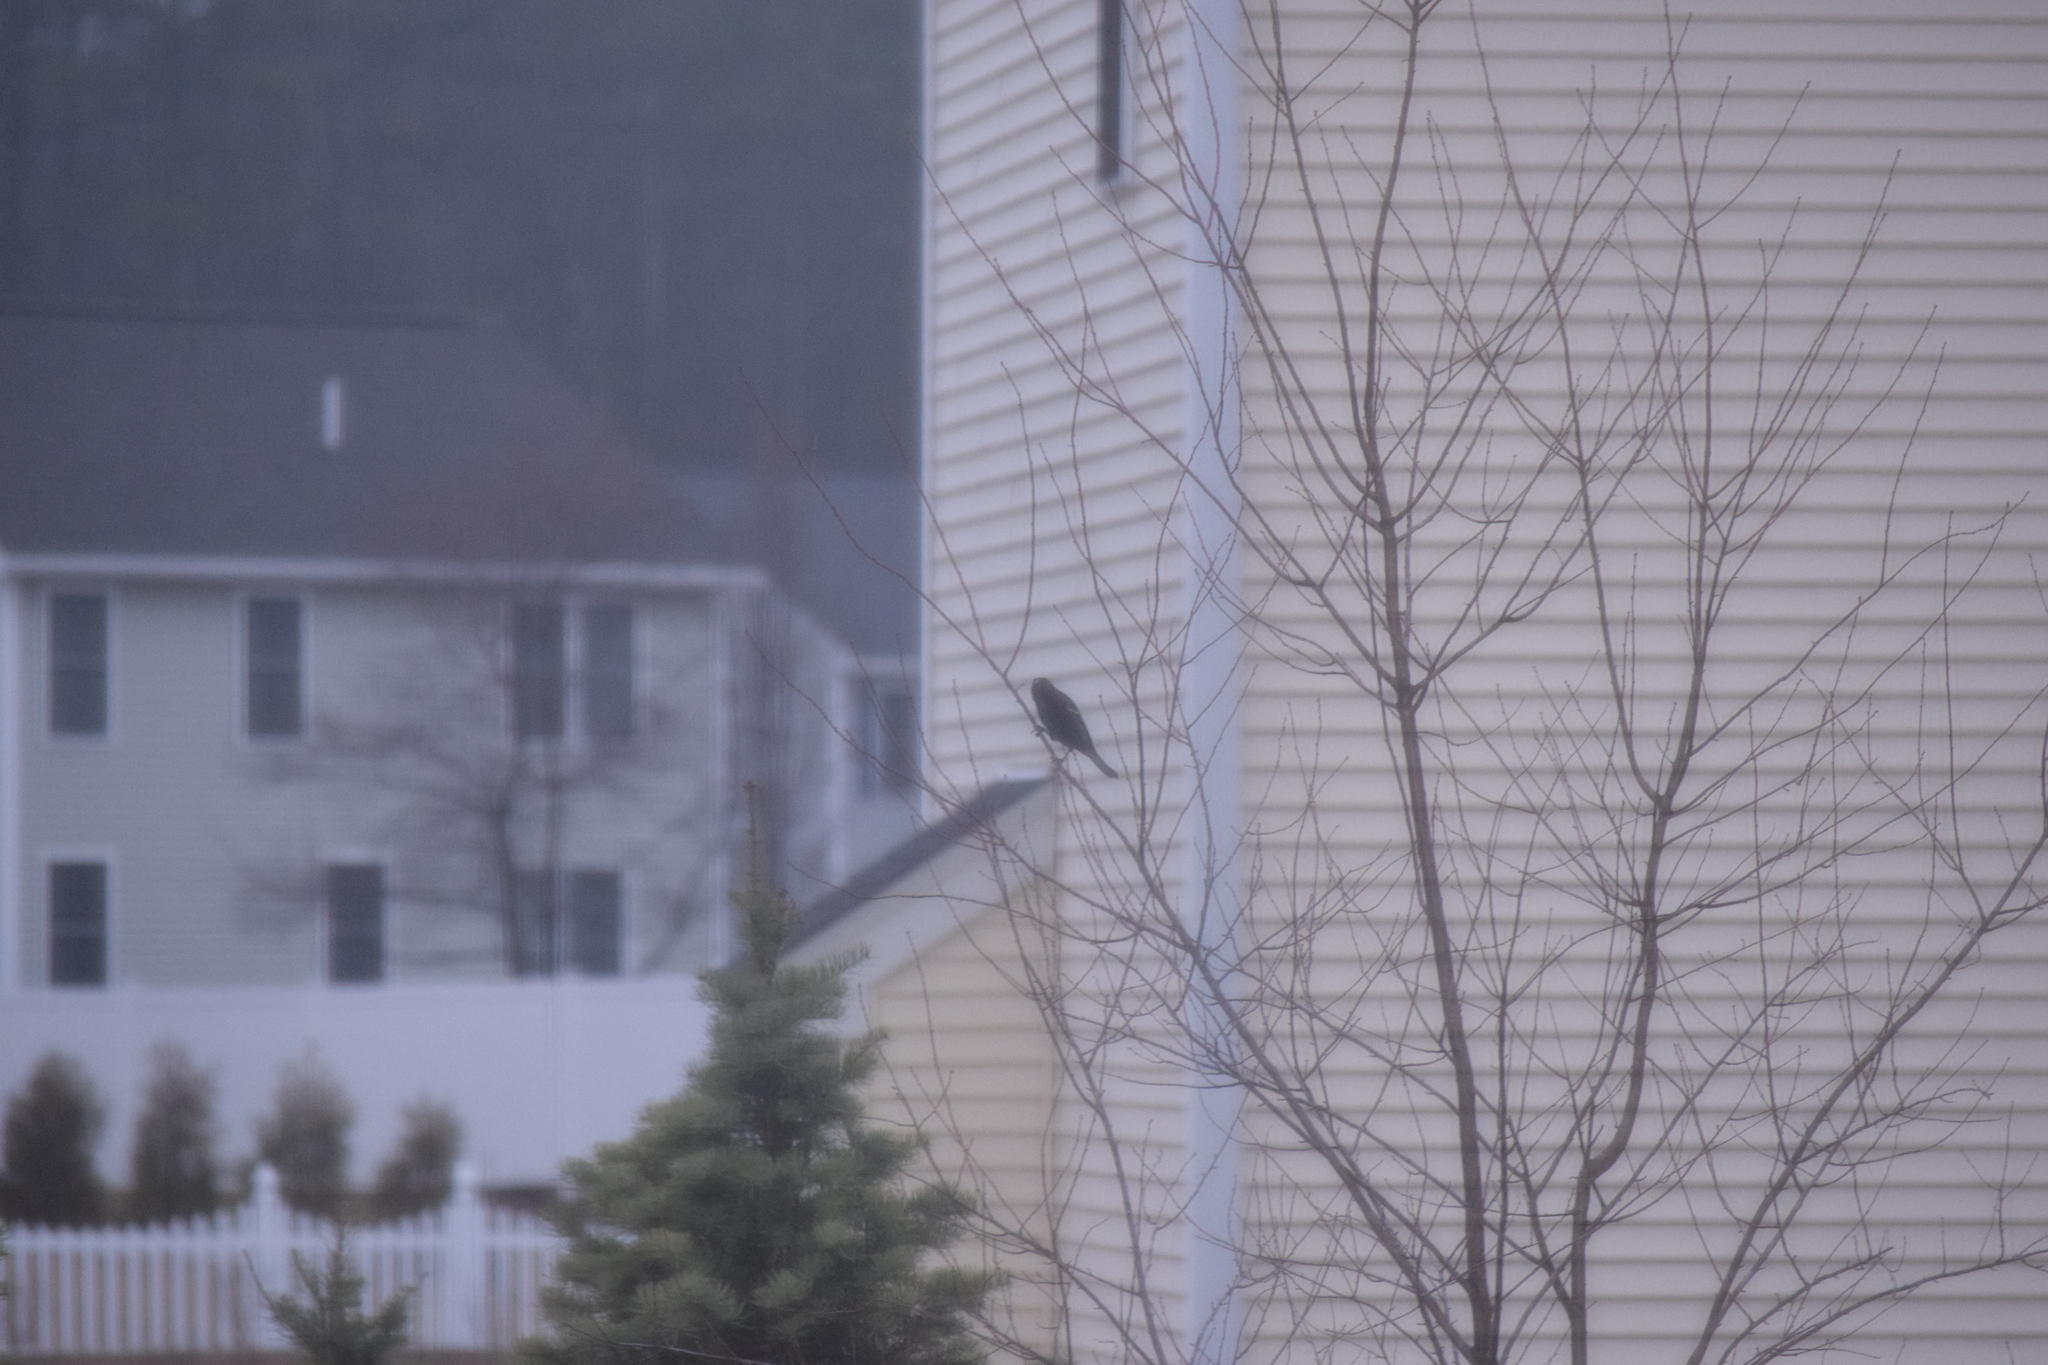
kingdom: Animalia
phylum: Chordata
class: Aves
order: Passeriformes
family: Icteridae
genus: Agelaius
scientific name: Agelaius phoeniceus
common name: Red-winged blackbird
